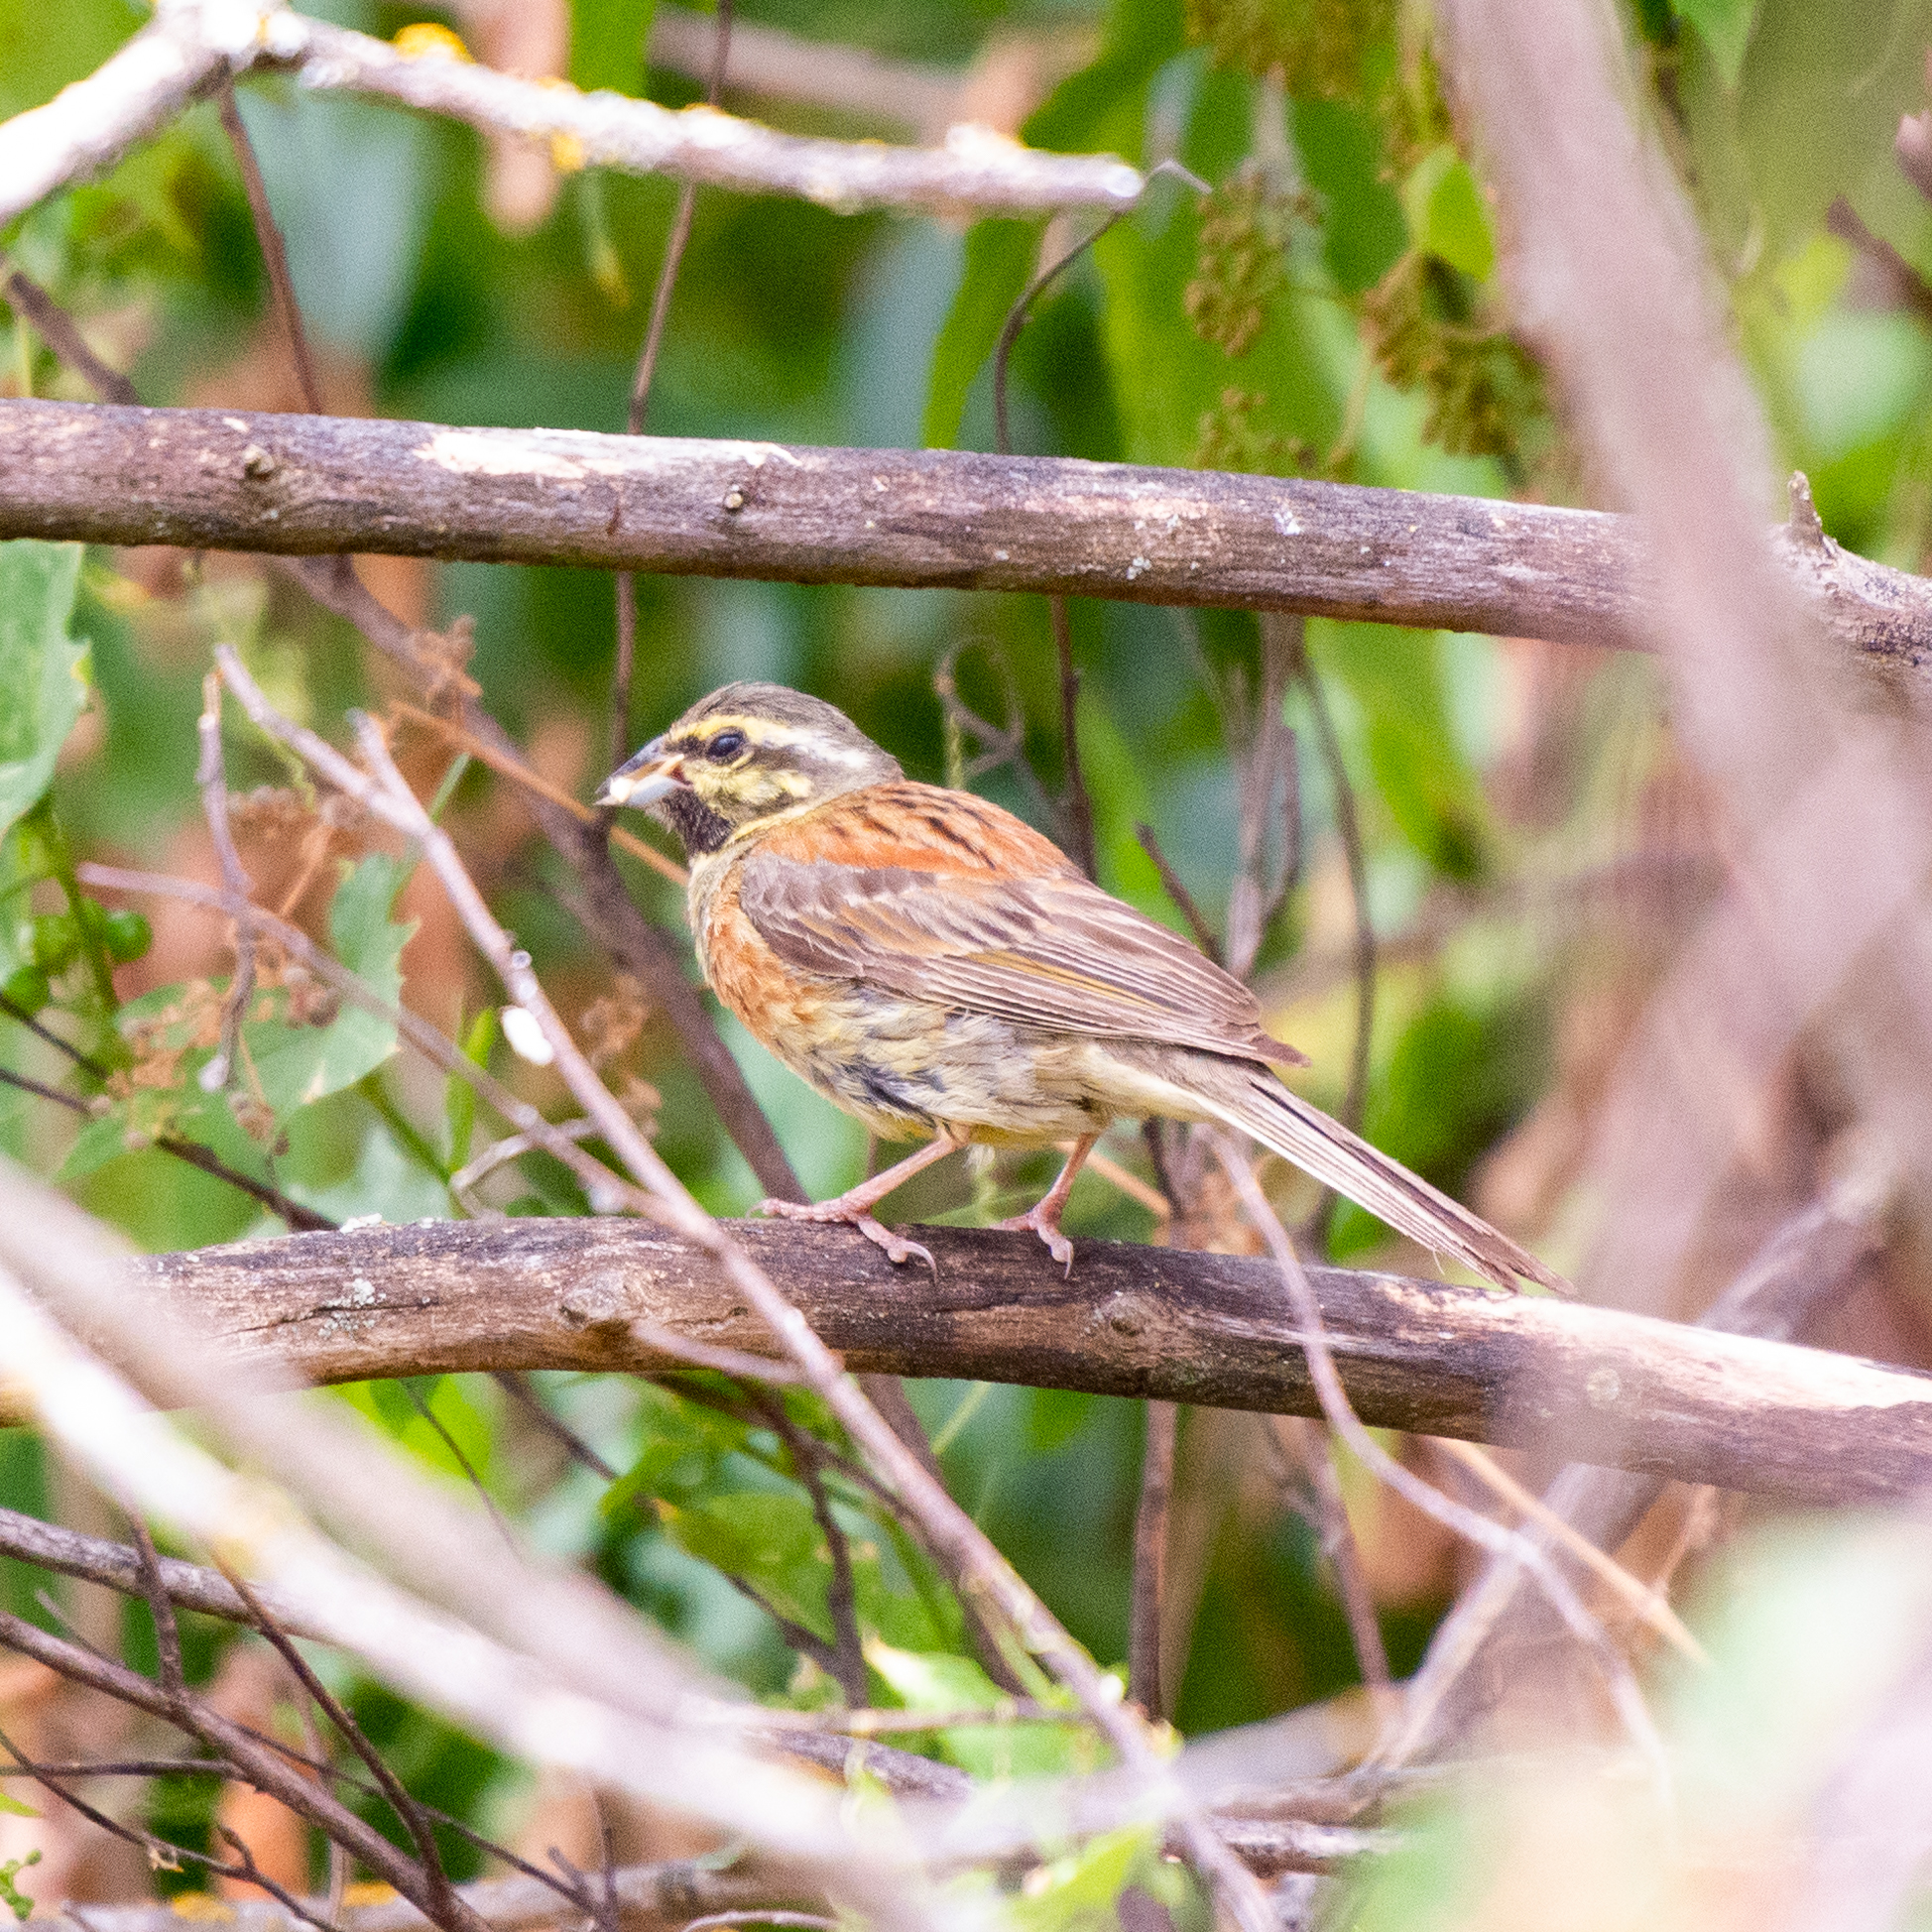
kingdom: Animalia
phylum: Chordata
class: Aves
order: Passeriformes
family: Emberizidae
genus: Emberiza
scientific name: Emberiza cirlus
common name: Cirl bunting
